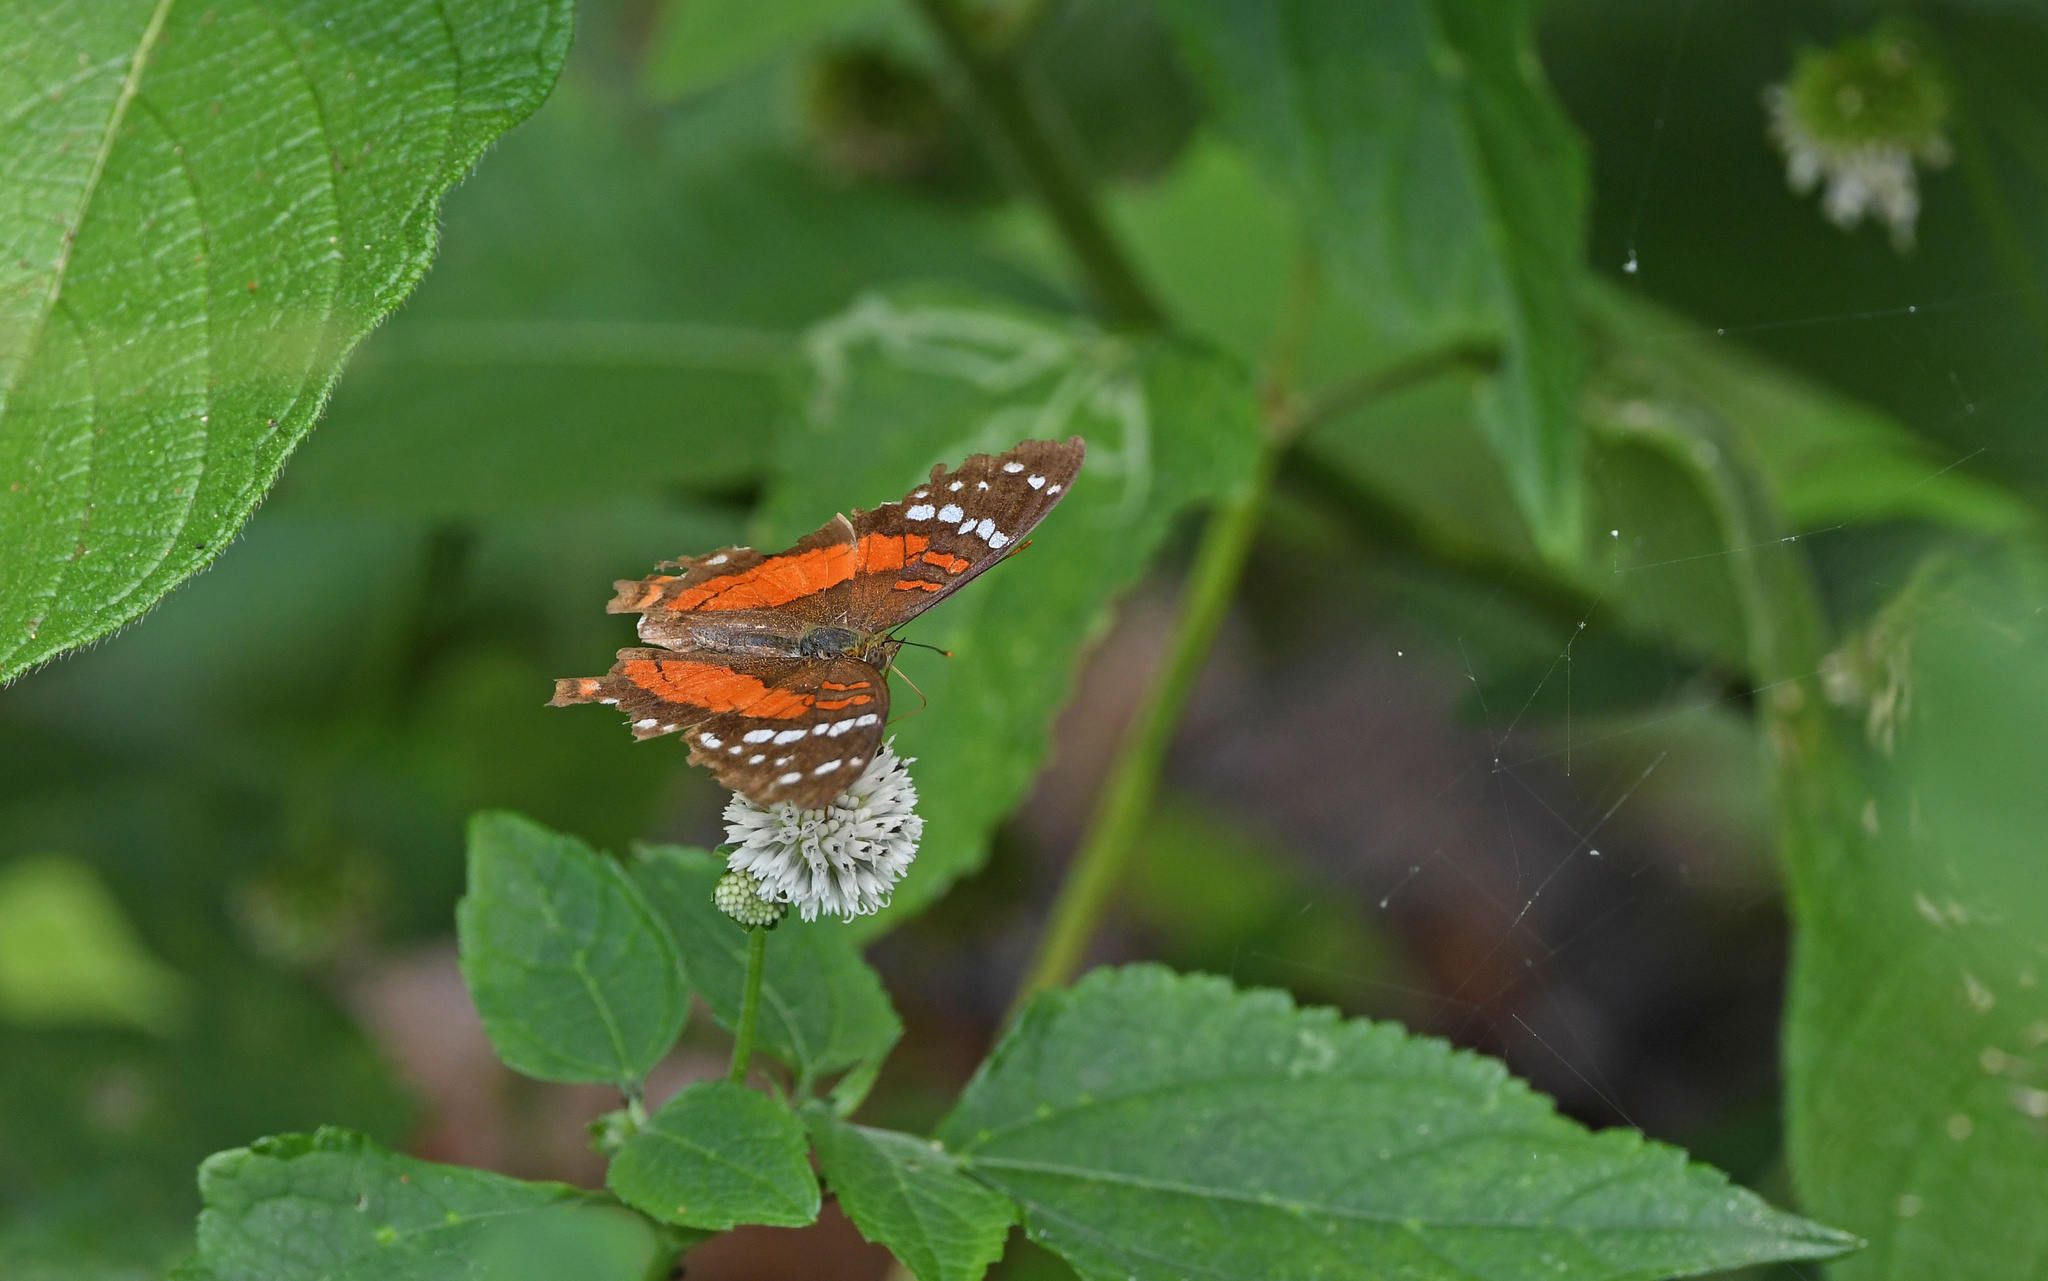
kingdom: Animalia
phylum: Arthropoda
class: Insecta
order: Lepidoptera
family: Nymphalidae
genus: Anartia
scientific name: Anartia amathea
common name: Red peacock
